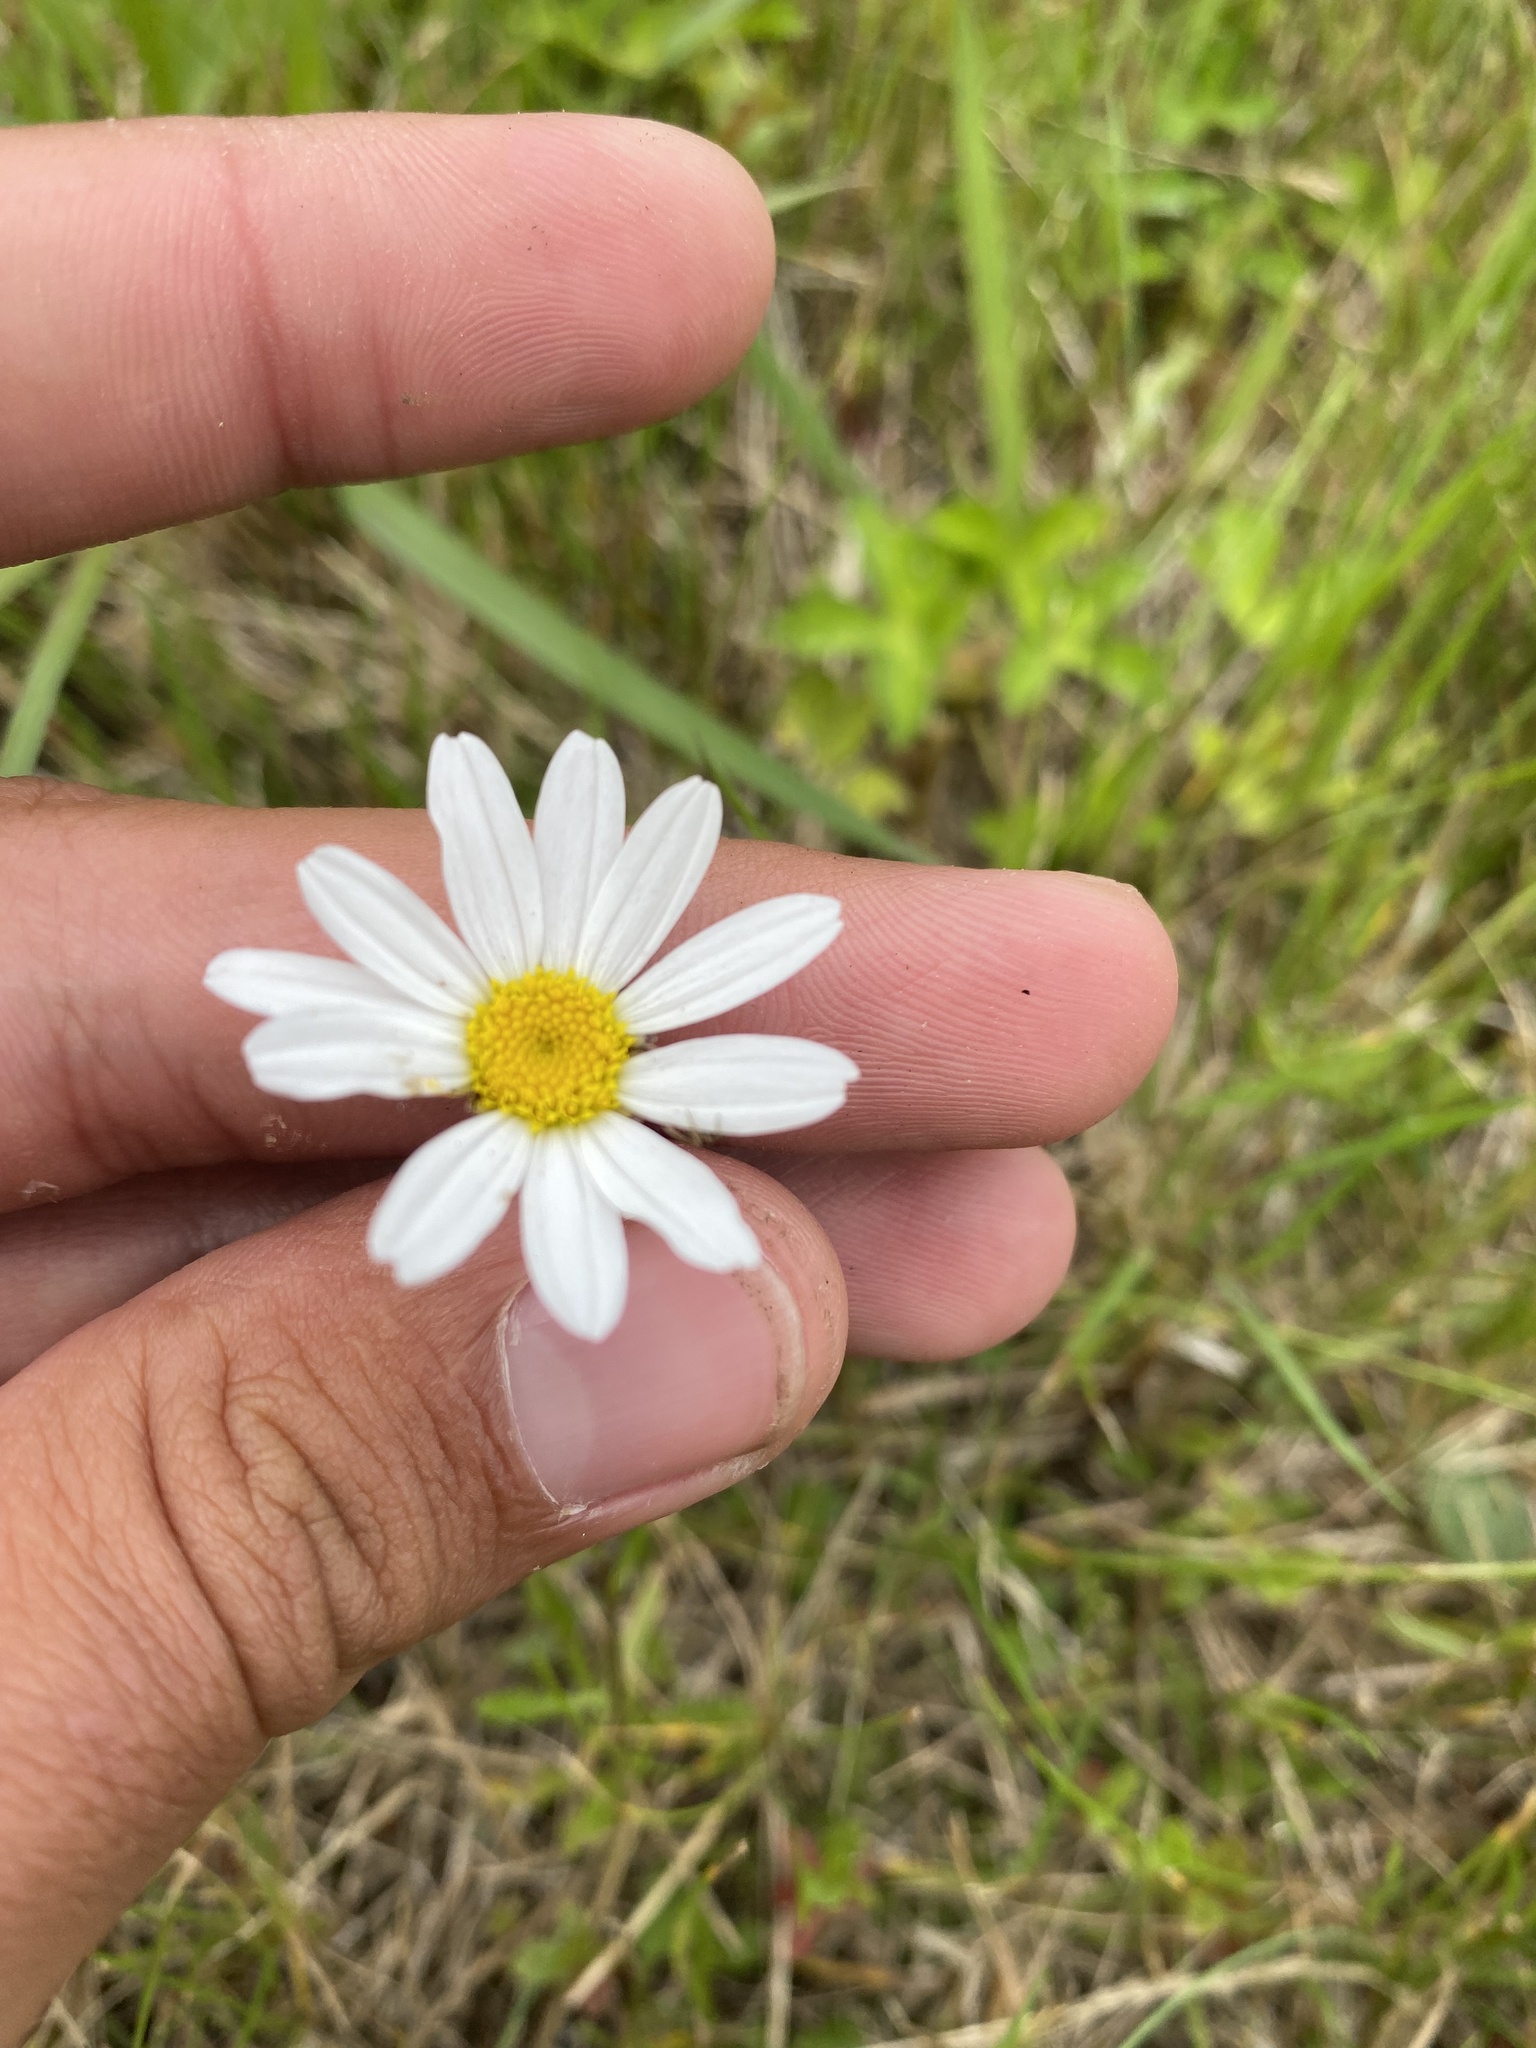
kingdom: Plantae
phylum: Tracheophyta
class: Magnoliopsida
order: Asterales
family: Asteraceae
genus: Leucanthemum
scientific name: Leucanthemum vulgare
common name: Oxeye daisy
